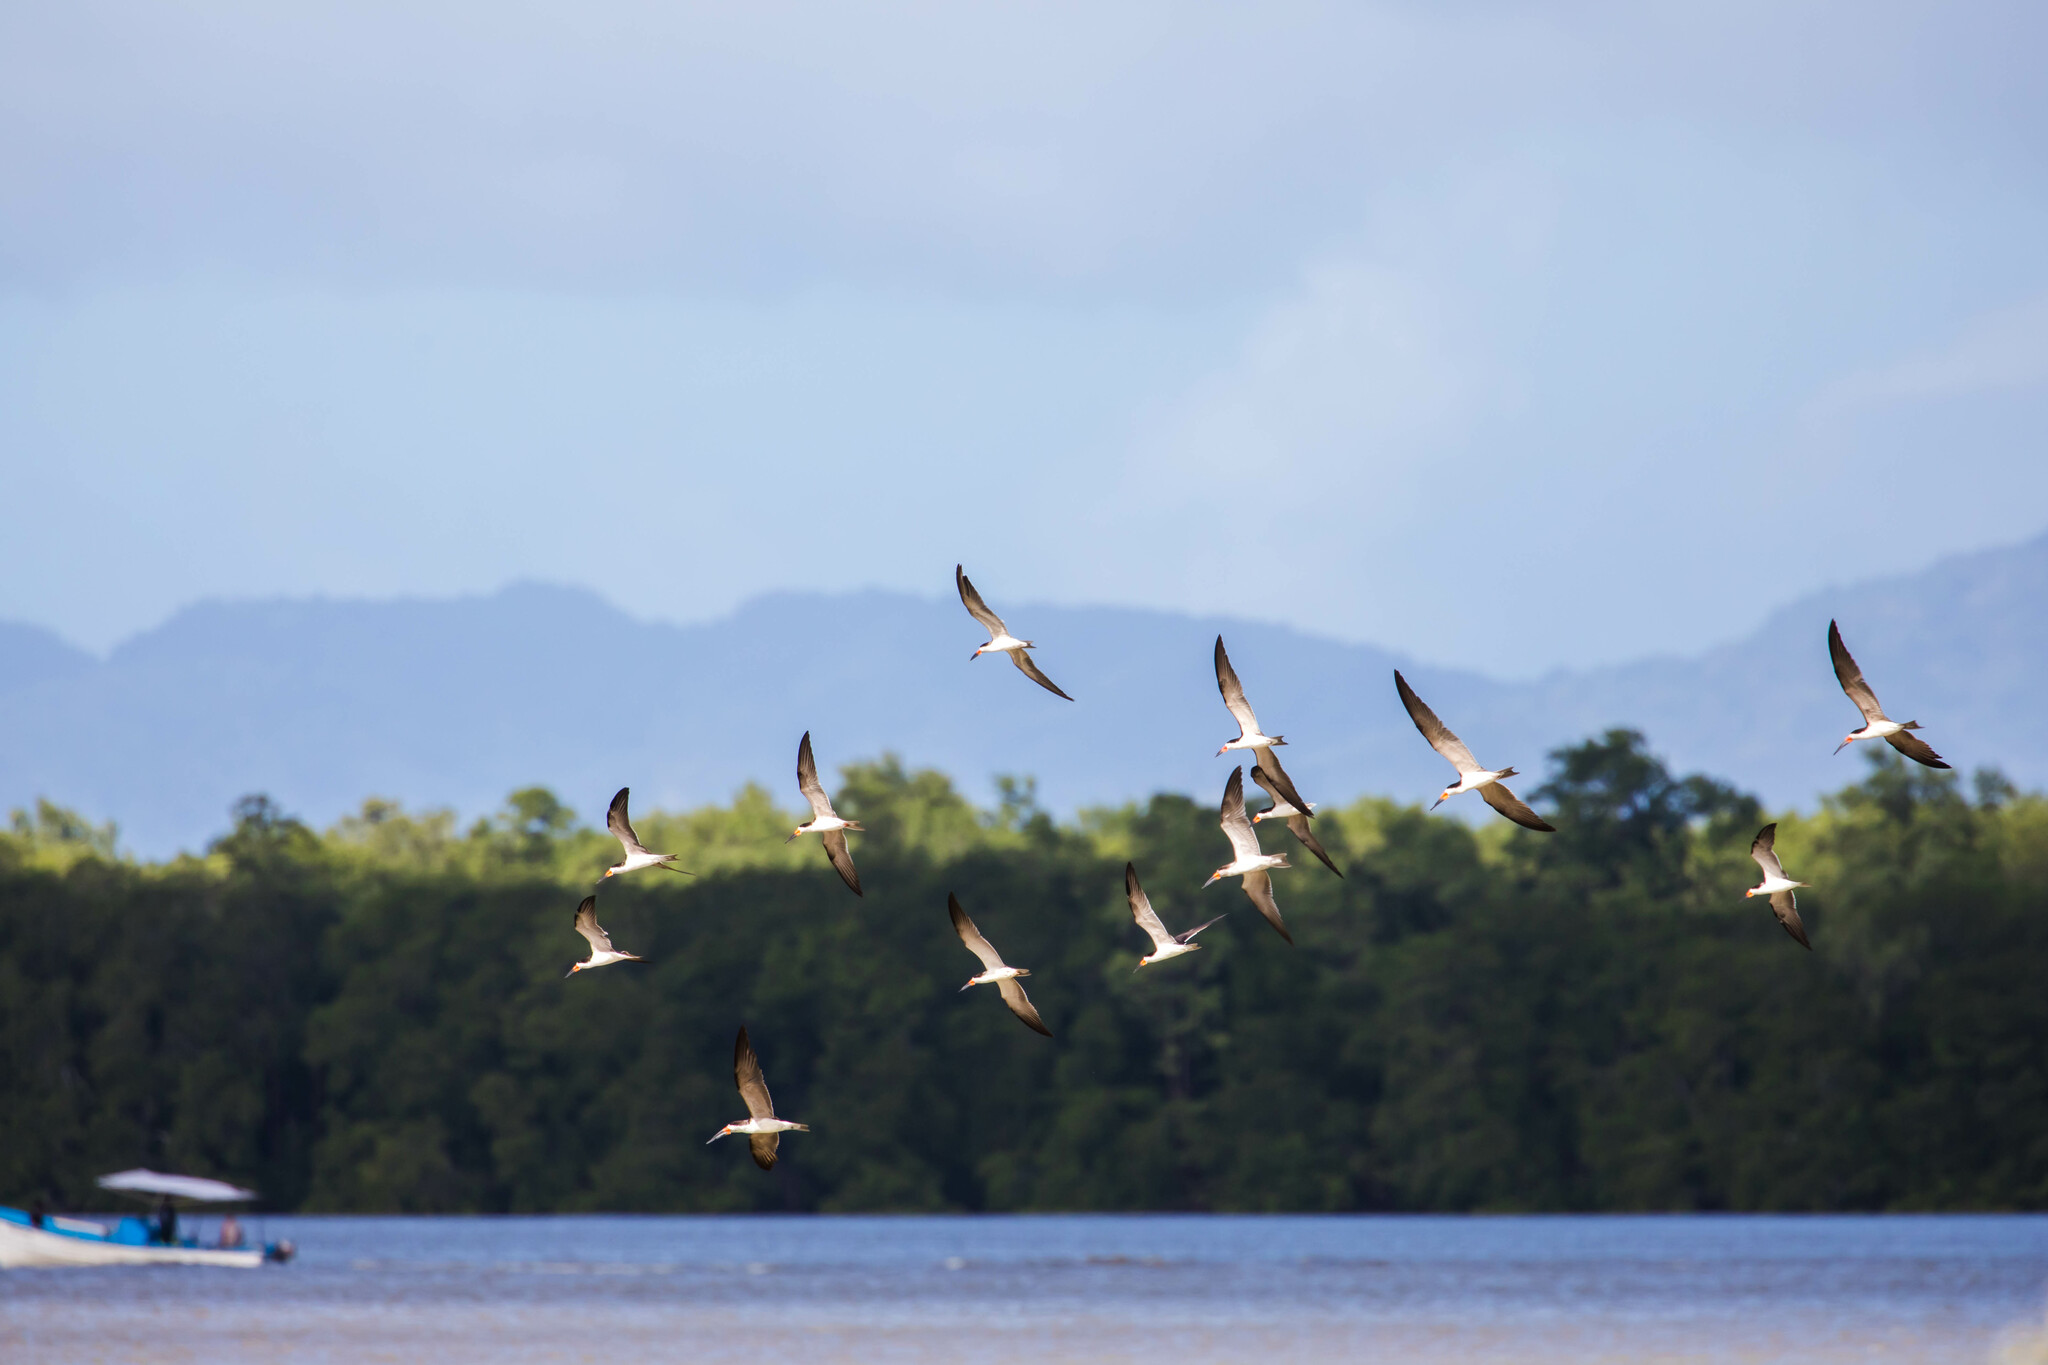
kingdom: Animalia
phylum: Chordata
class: Aves
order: Charadriiformes
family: Laridae
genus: Rynchops
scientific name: Rynchops niger
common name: Black skimmer
